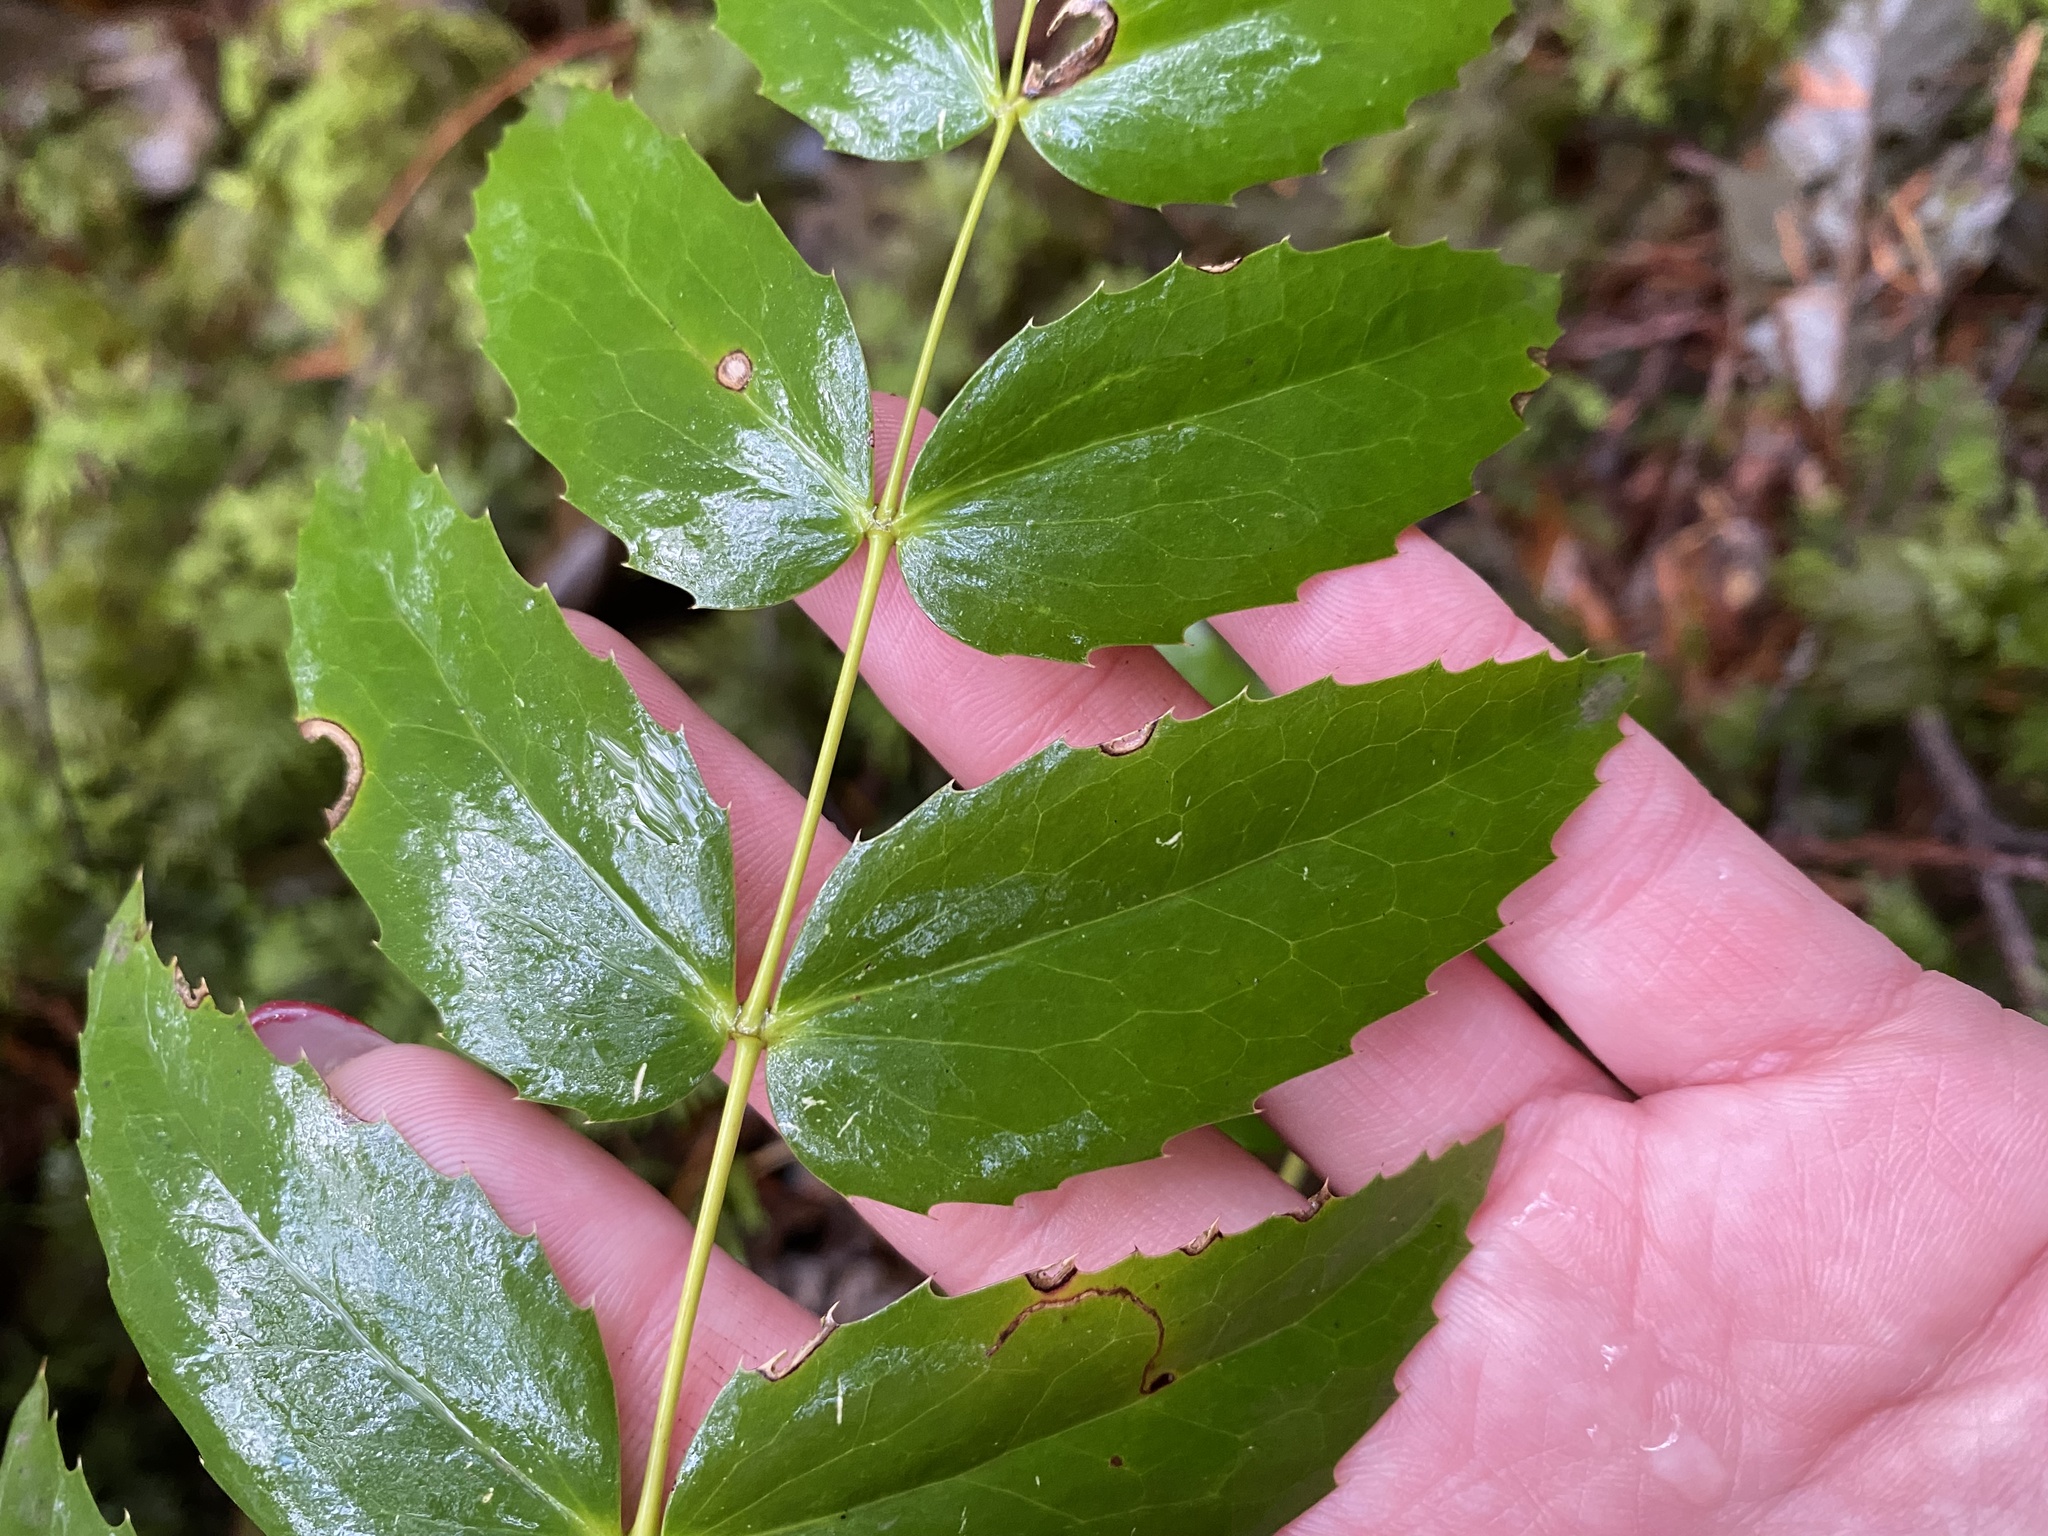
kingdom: Plantae
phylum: Tracheophyta
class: Magnoliopsida
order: Ranunculales
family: Berberidaceae
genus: Mahonia
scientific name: Mahonia nervosa
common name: Cascade oregon-grape
